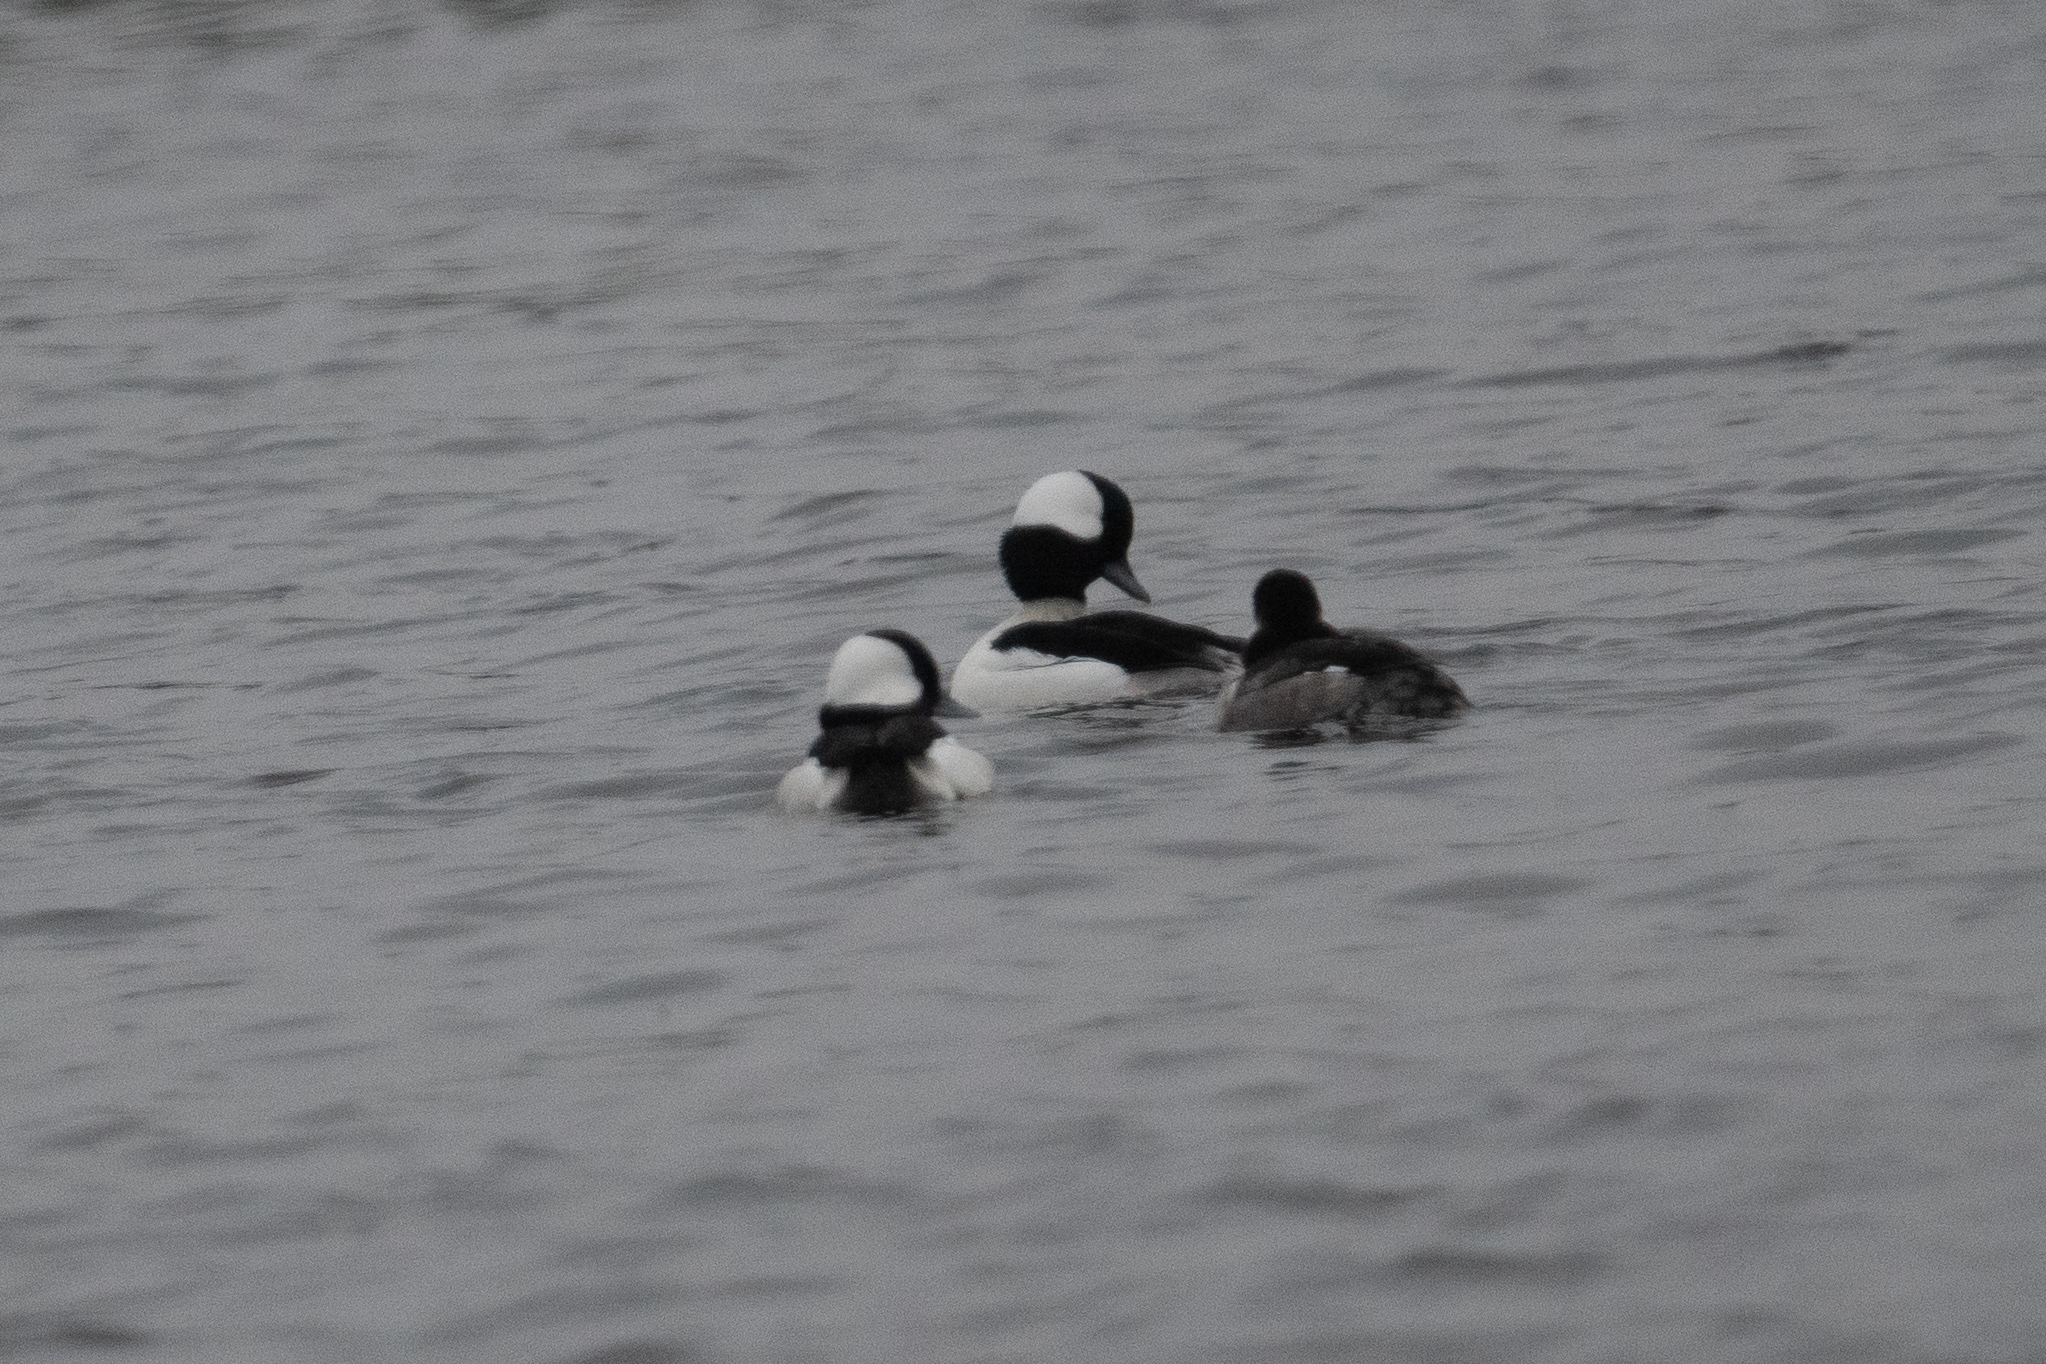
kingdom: Animalia
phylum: Chordata
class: Aves
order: Anseriformes
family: Anatidae
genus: Bucephala
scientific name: Bucephala albeola
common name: Bufflehead
